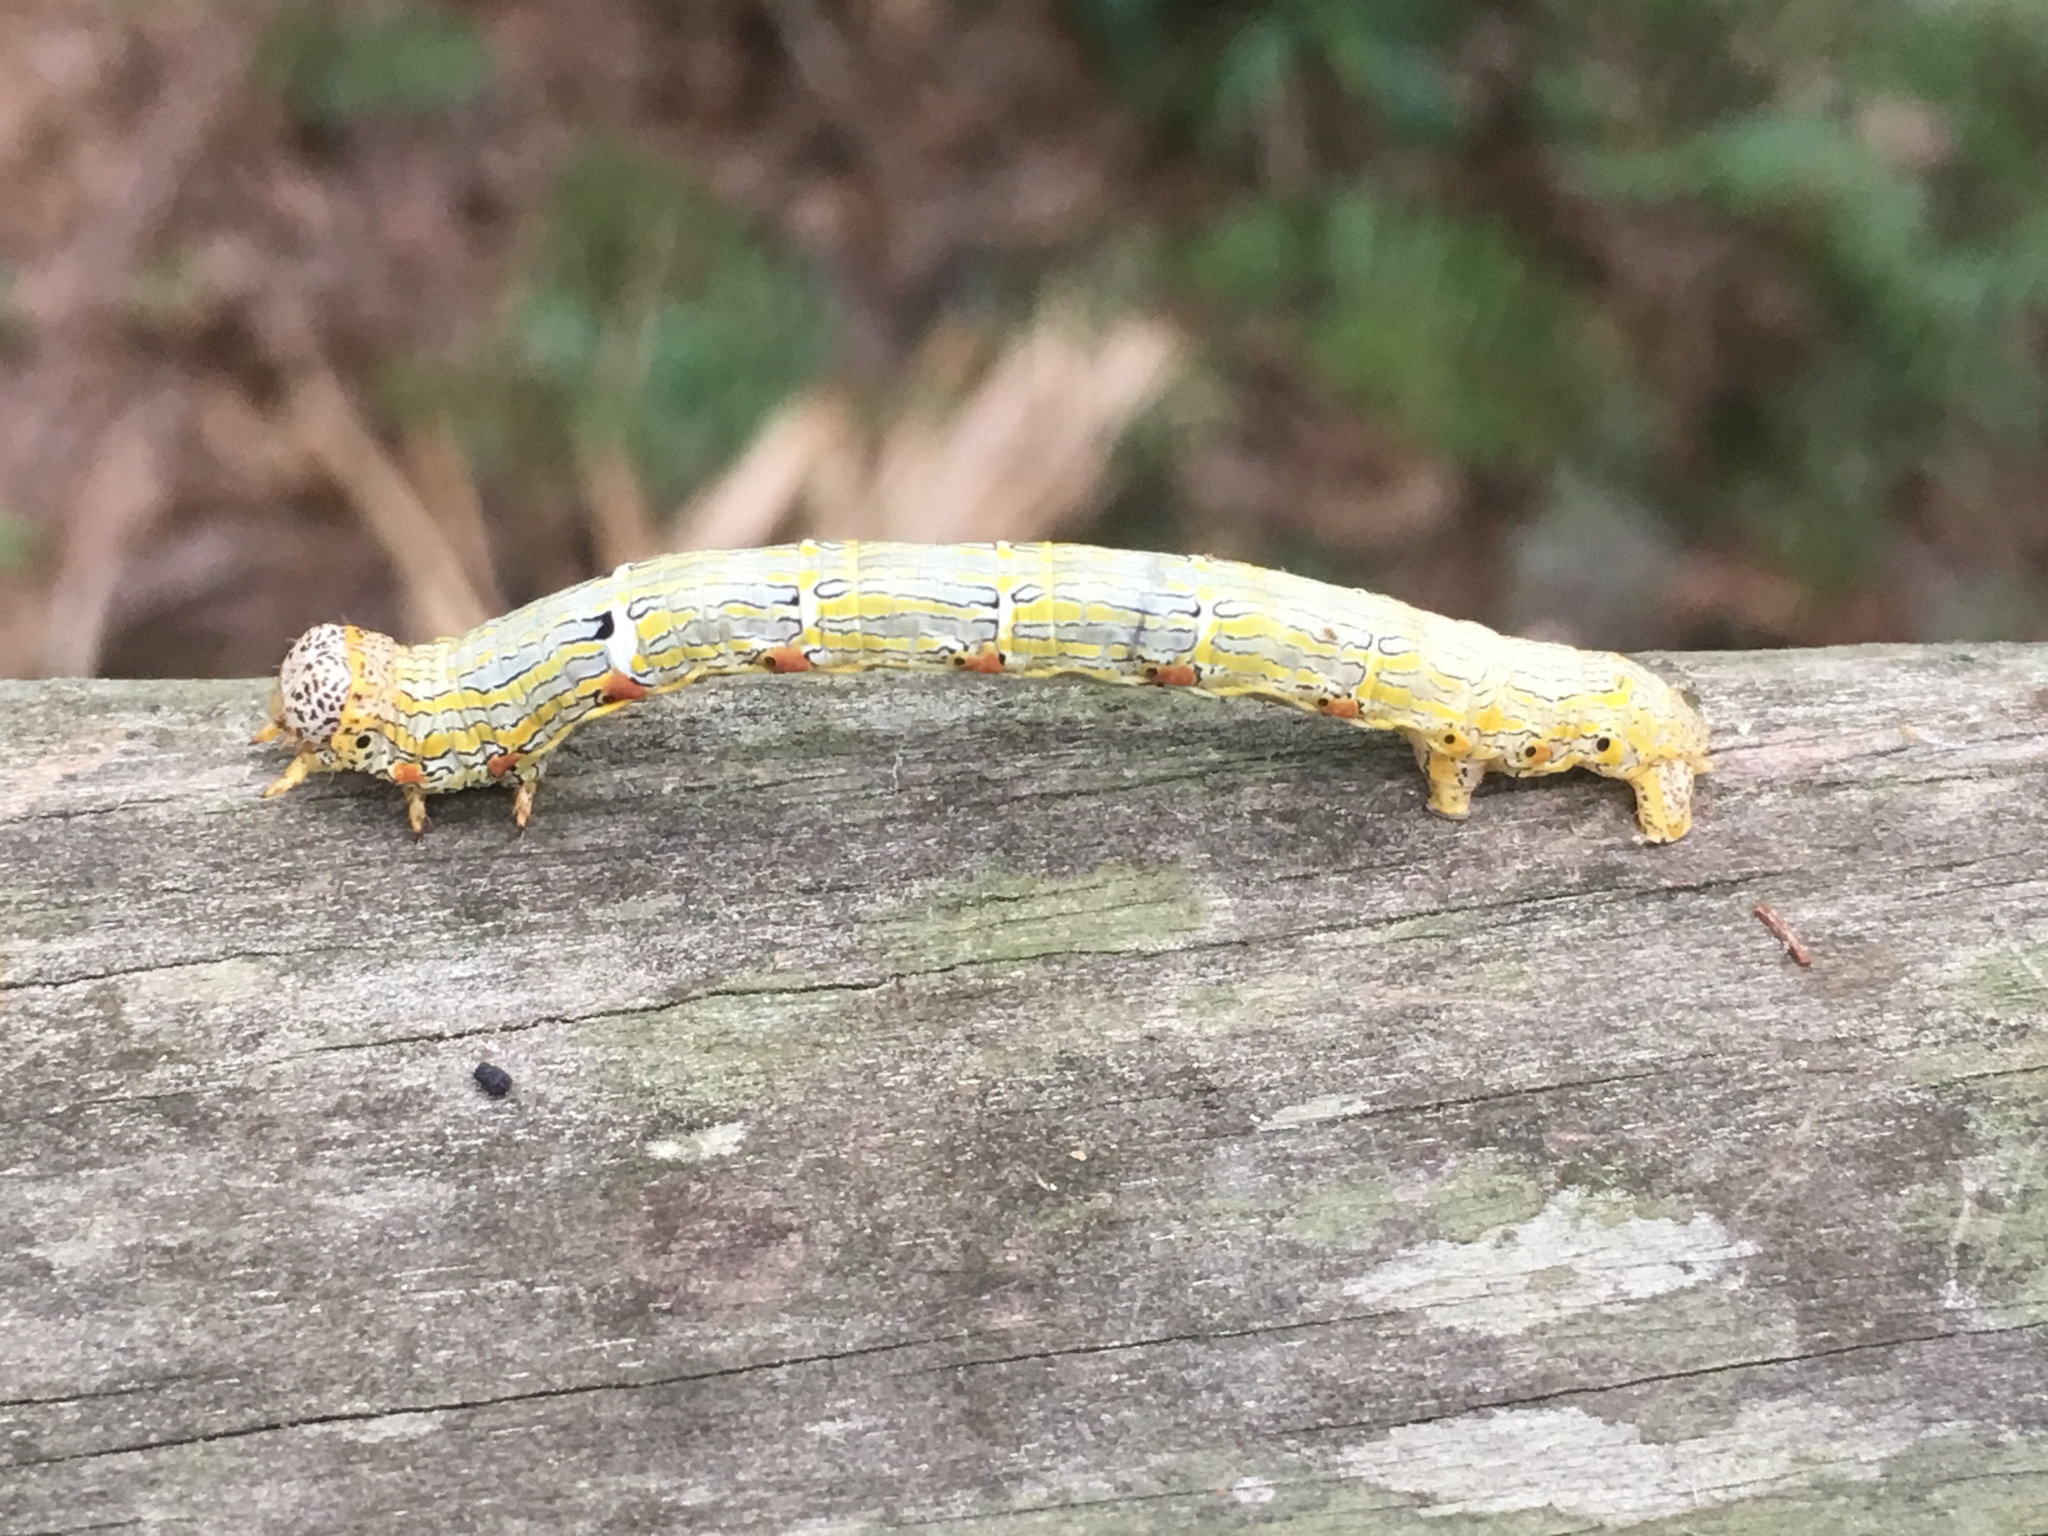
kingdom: Animalia
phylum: Arthropoda
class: Insecta
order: Lepidoptera
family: Geometridae
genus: Lycia
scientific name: Lycia ypsilon
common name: Wooly gray
